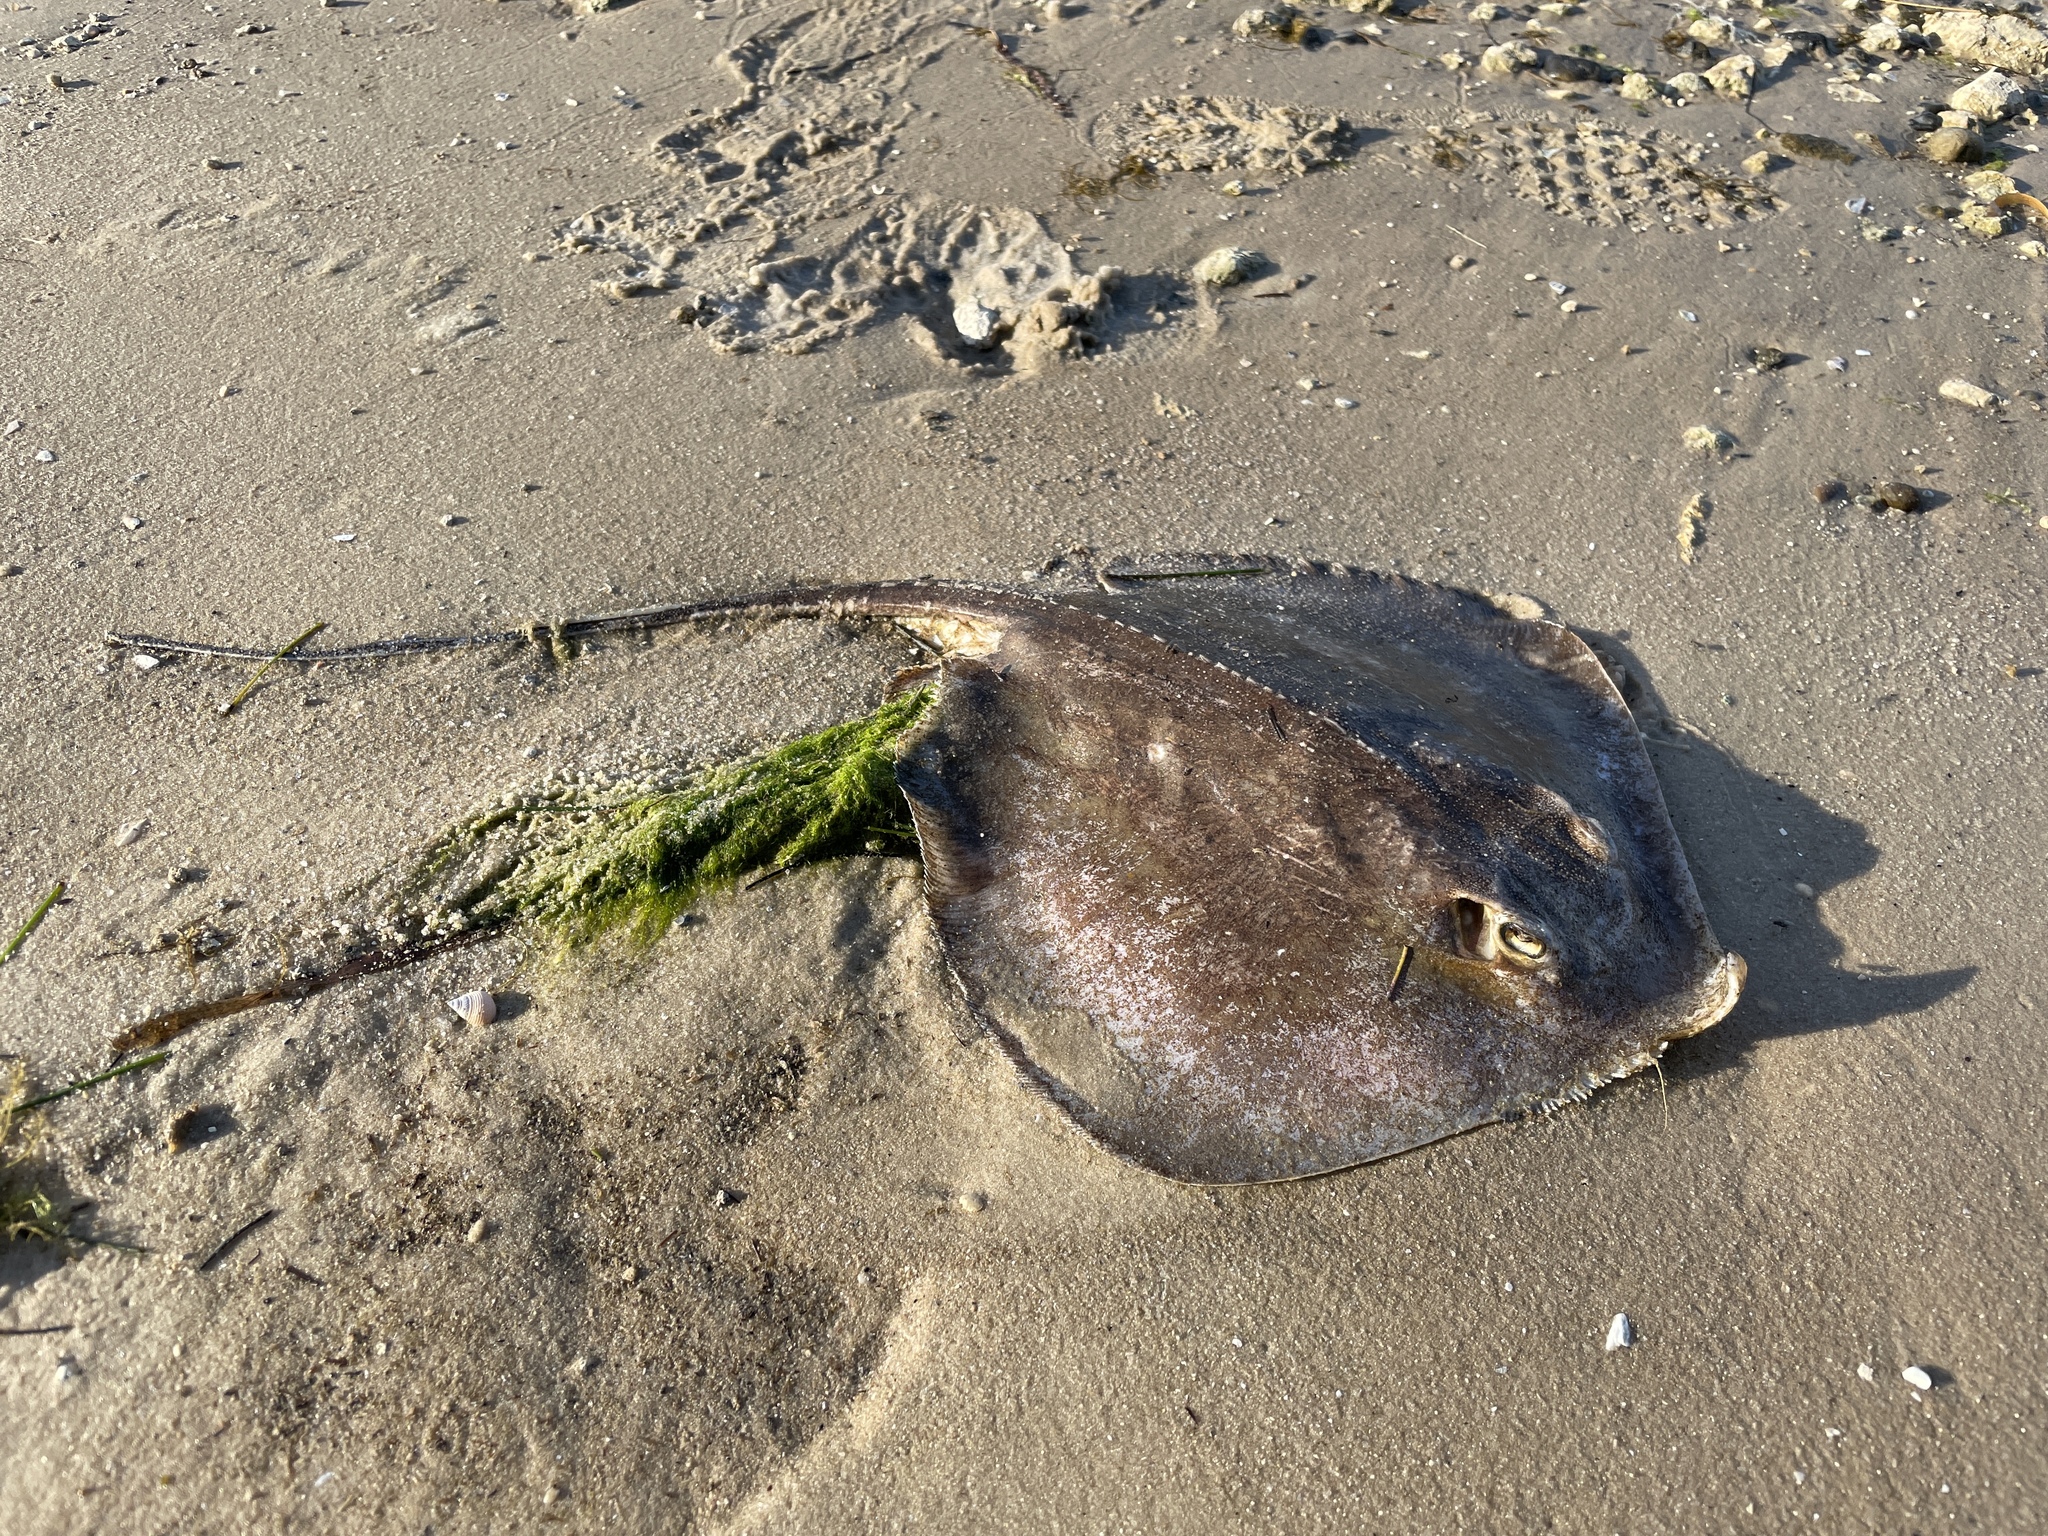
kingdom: Animalia
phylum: Chordata
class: Elasmobranchii
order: Myliobatiformes
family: Dasyatidae
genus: Hypanus
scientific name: Hypanus sabinus
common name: Atlantic stingray
